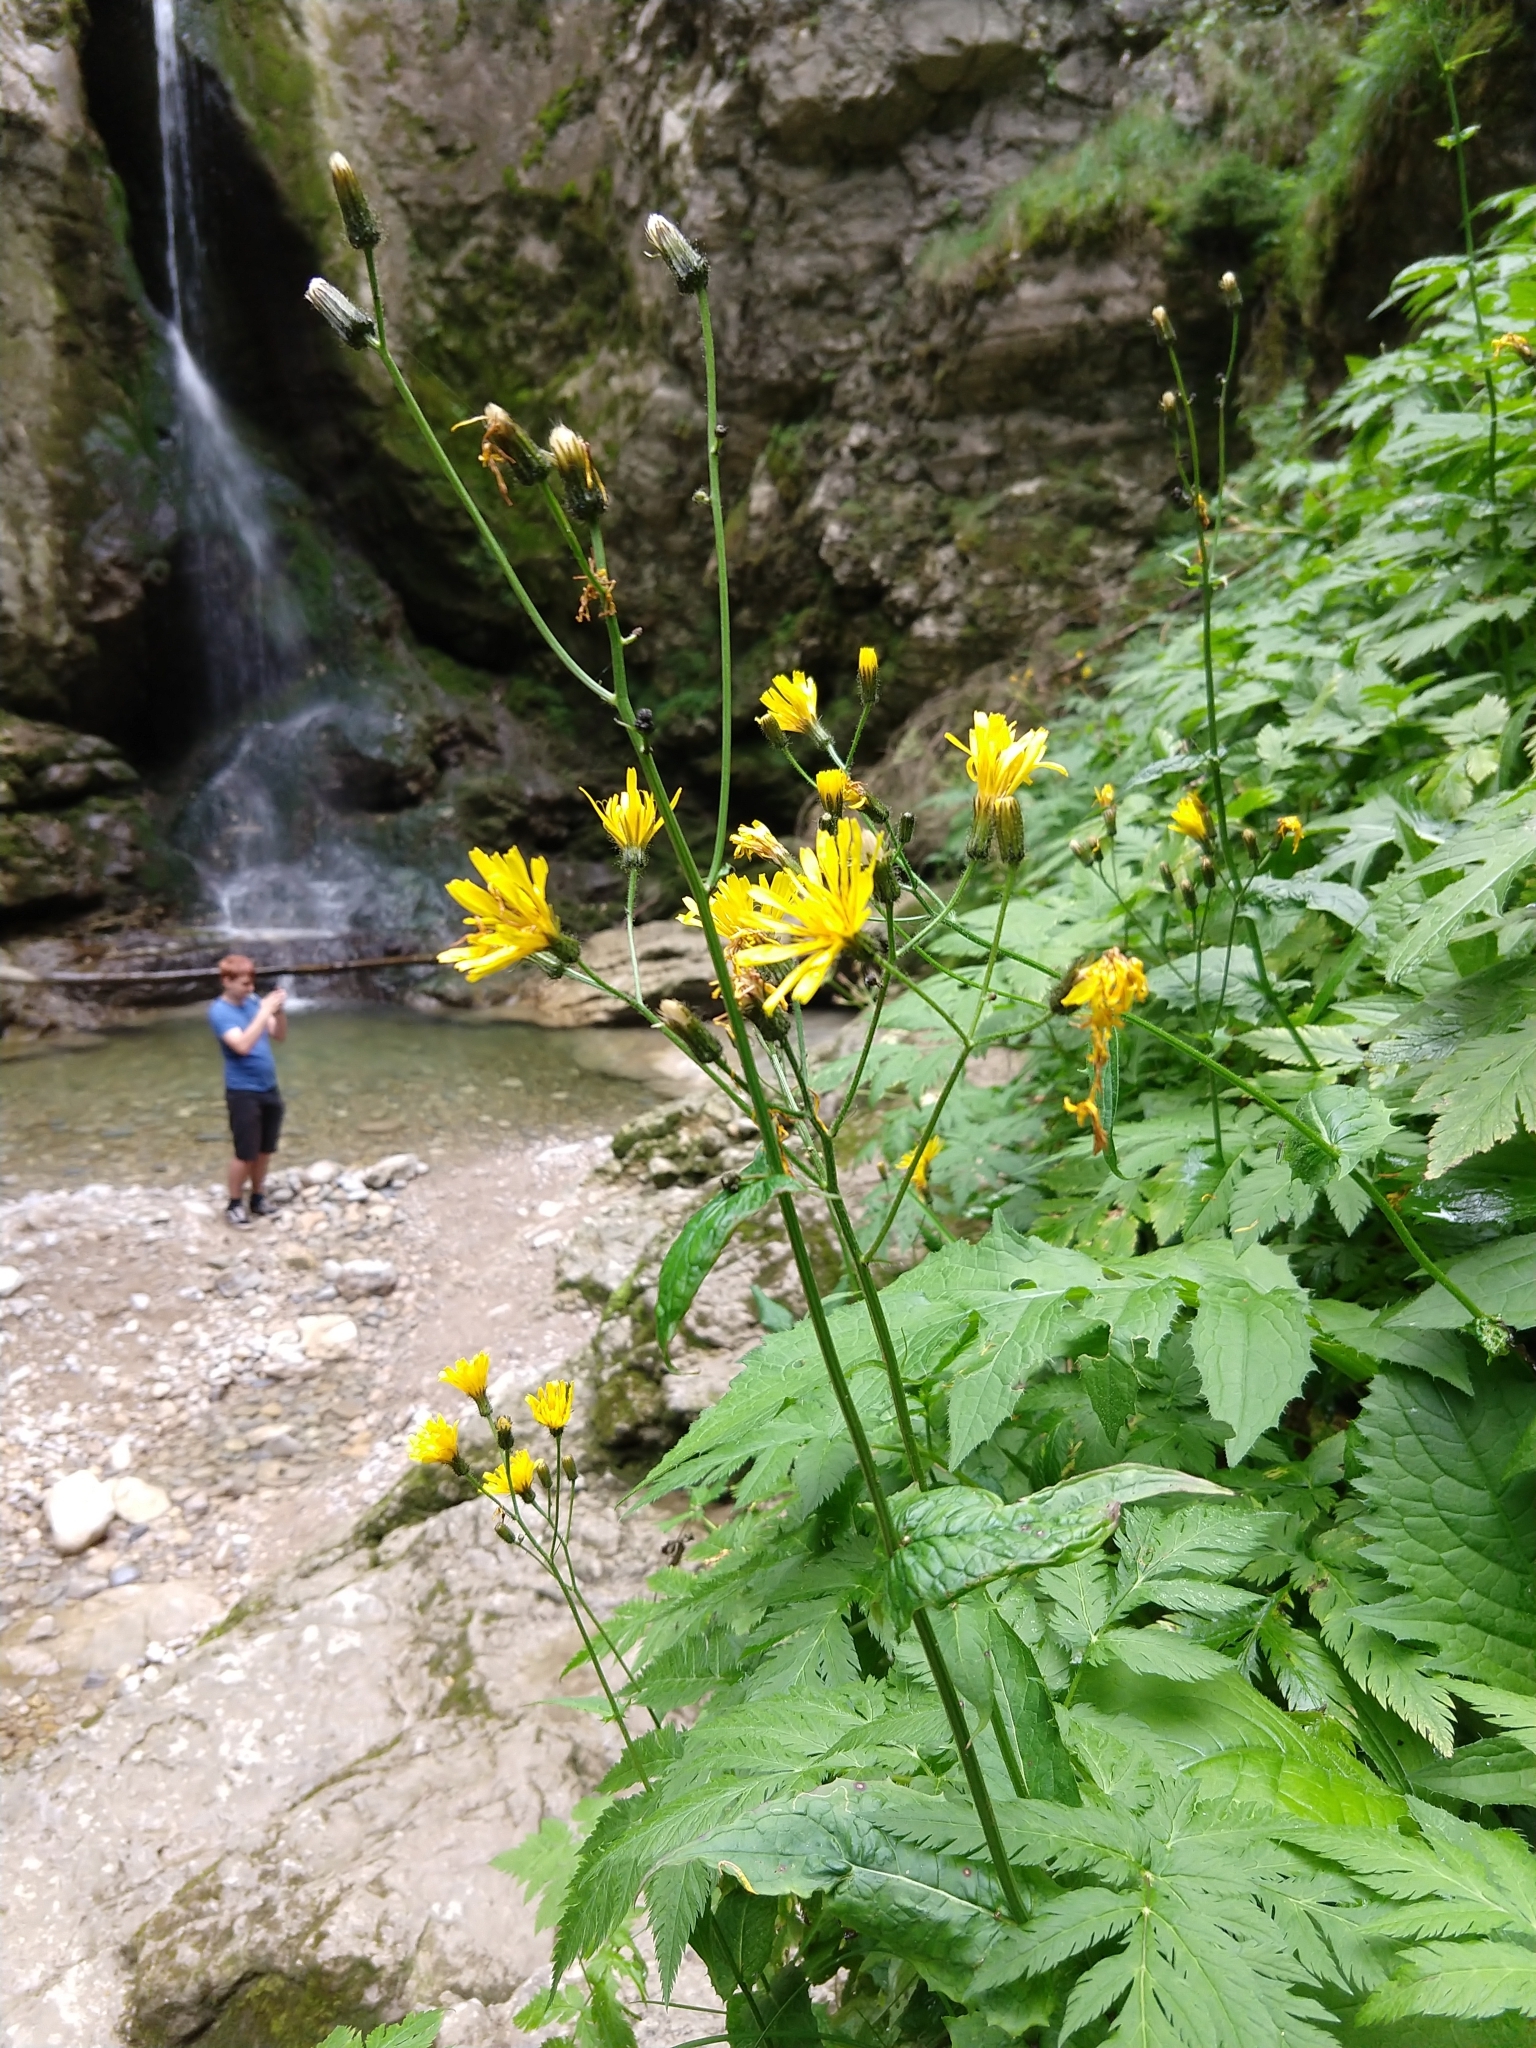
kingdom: Plantae
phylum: Tracheophyta
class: Magnoliopsida
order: Asterales
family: Asteraceae
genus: Crepis
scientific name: Crepis paludosa
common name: Marsh hawk's-beard
